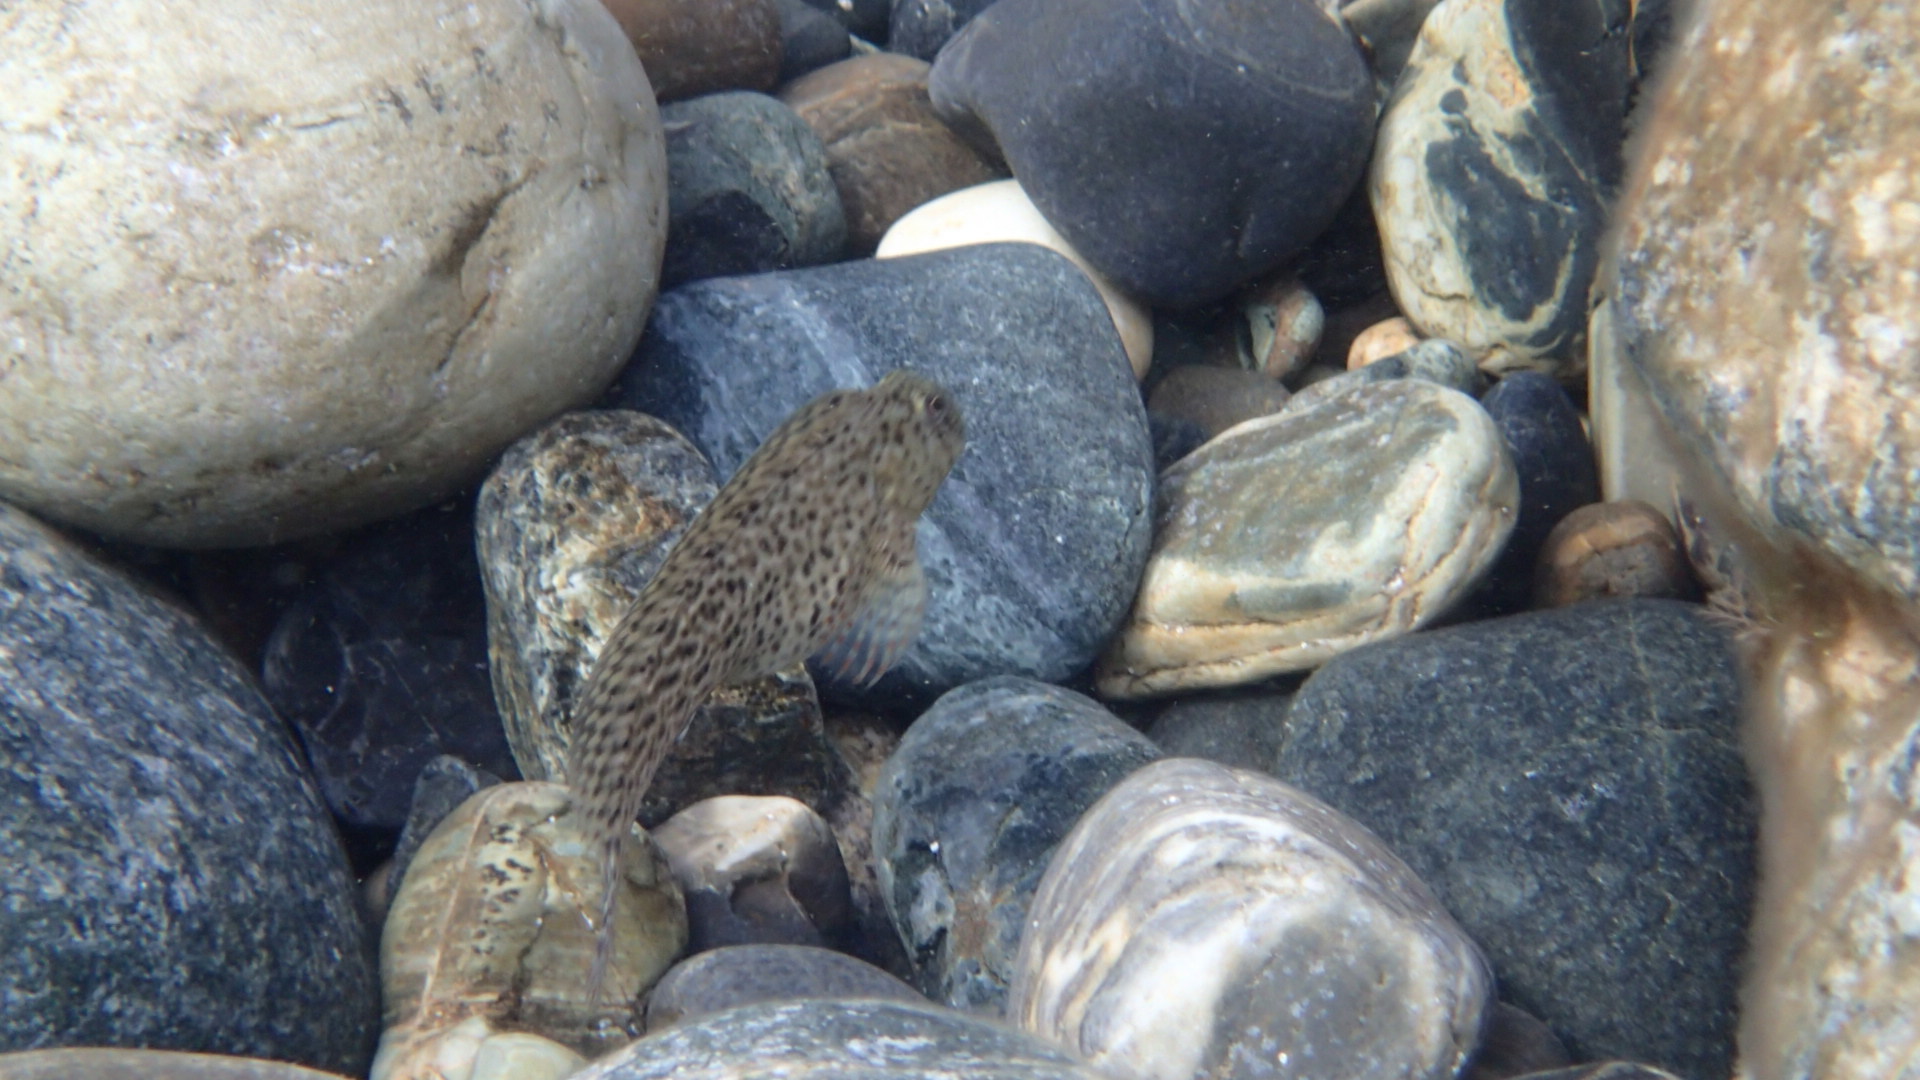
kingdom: Animalia
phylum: Chordata
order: Perciformes
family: Blenniidae
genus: Parablennius
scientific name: Parablennius sanguinolentus
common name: Black sea blenny
